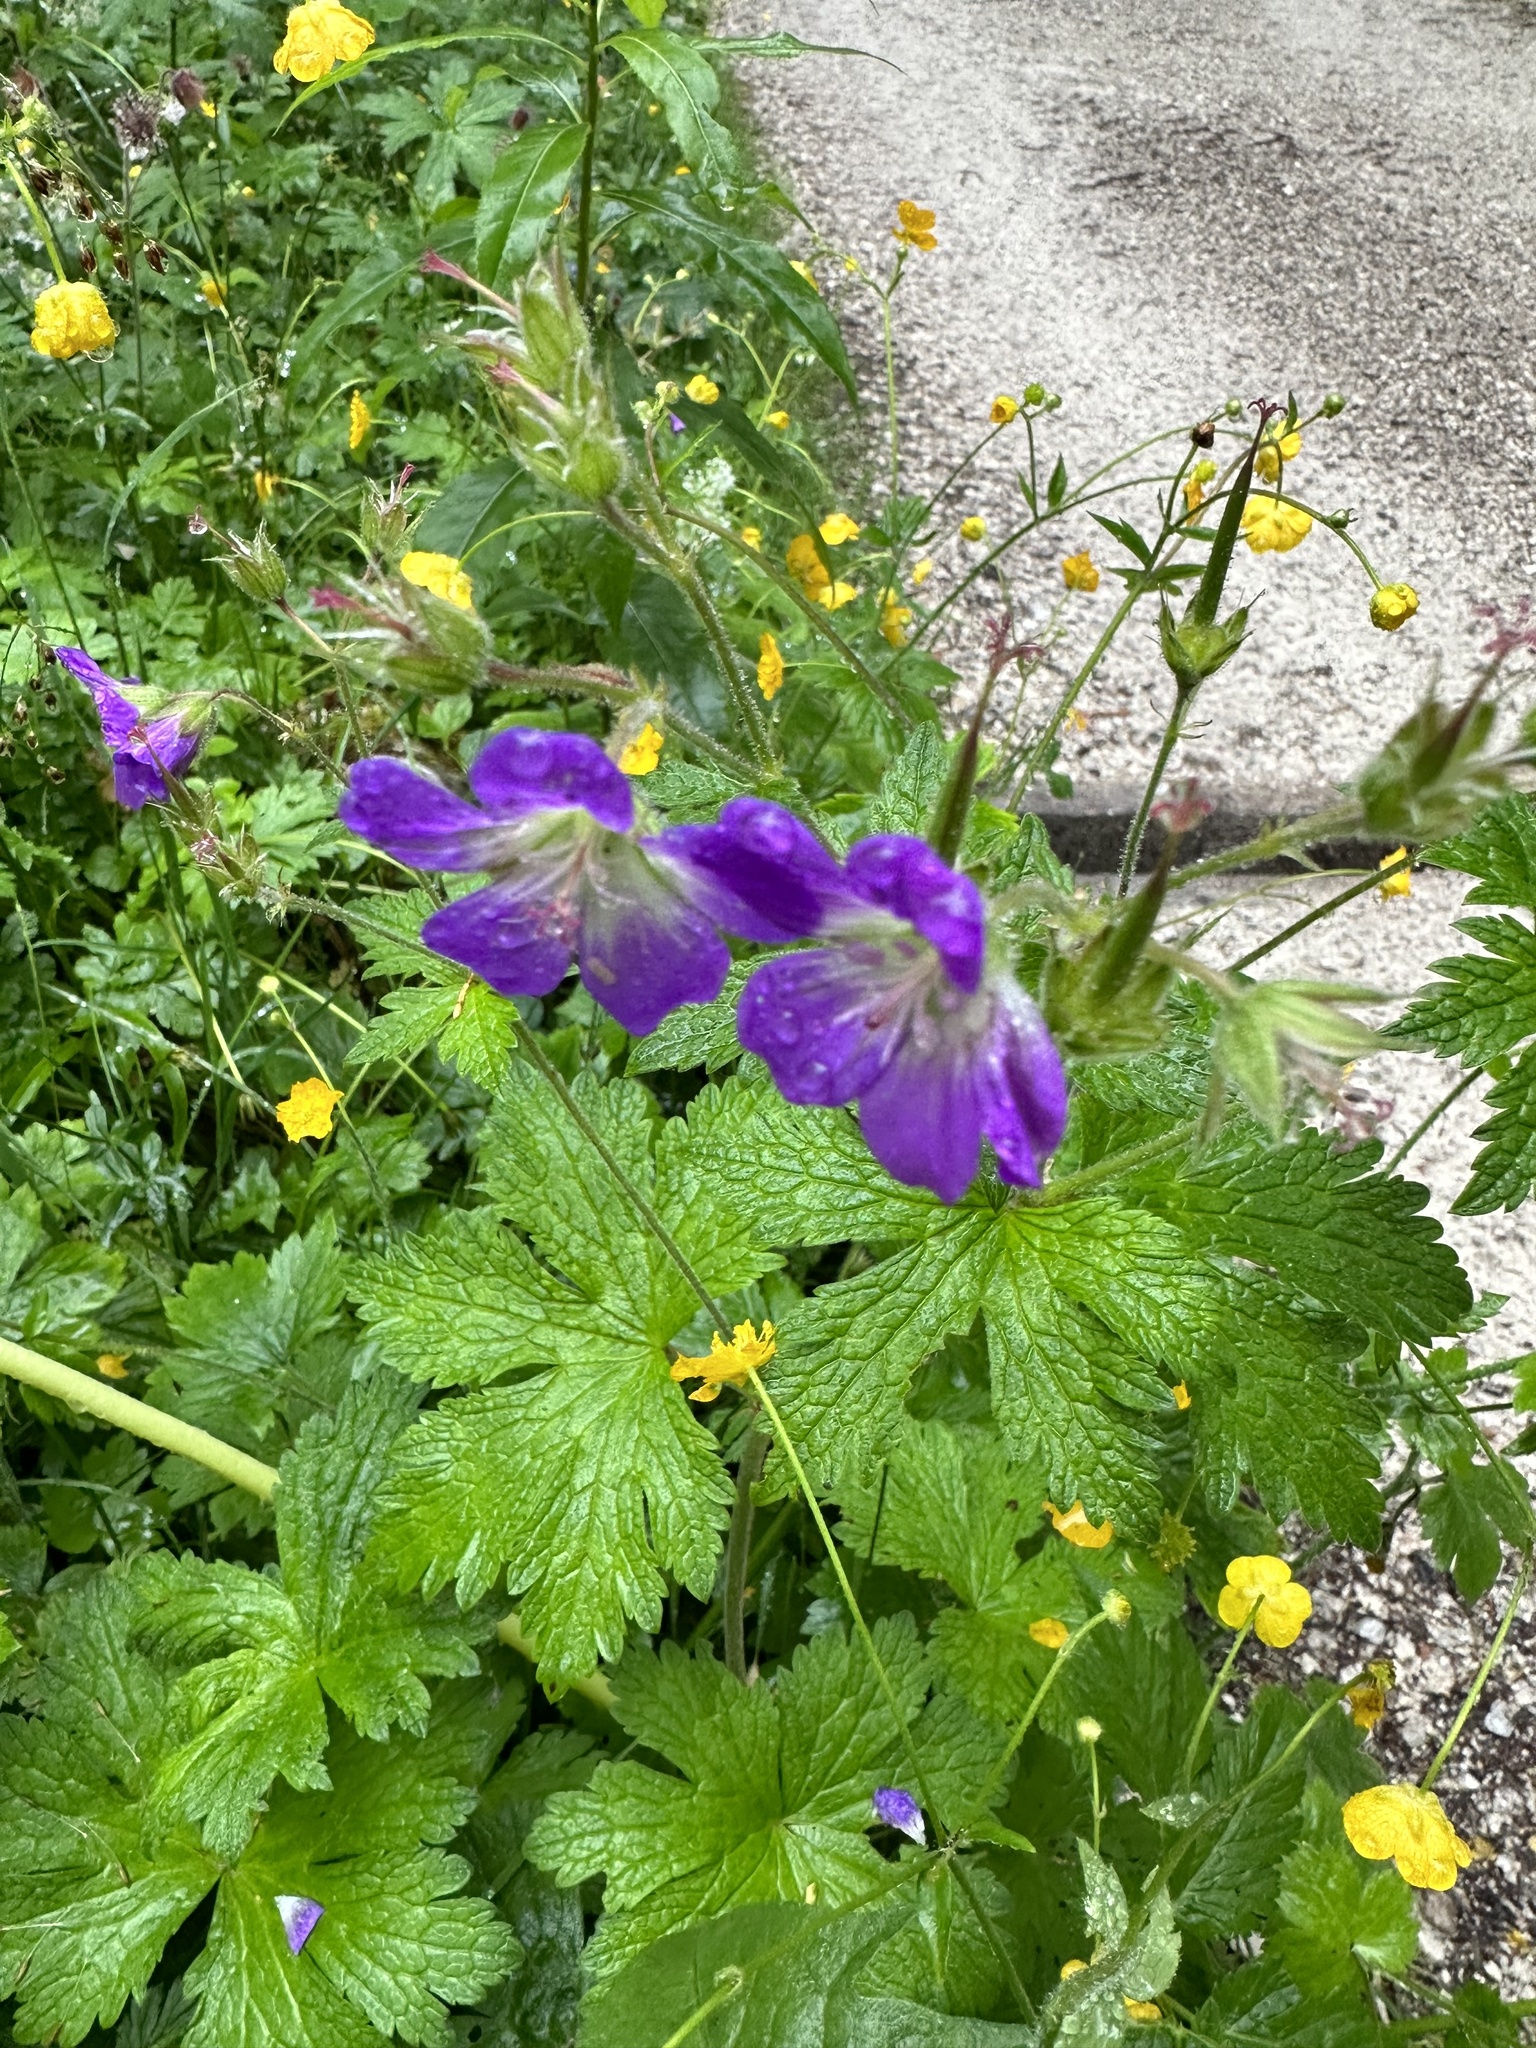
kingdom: Plantae
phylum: Tracheophyta
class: Magnoliopsida
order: Geraniales
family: Geraniaceae
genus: Geranium
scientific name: Geranium sylvaticum
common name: Wood crane's-bill
